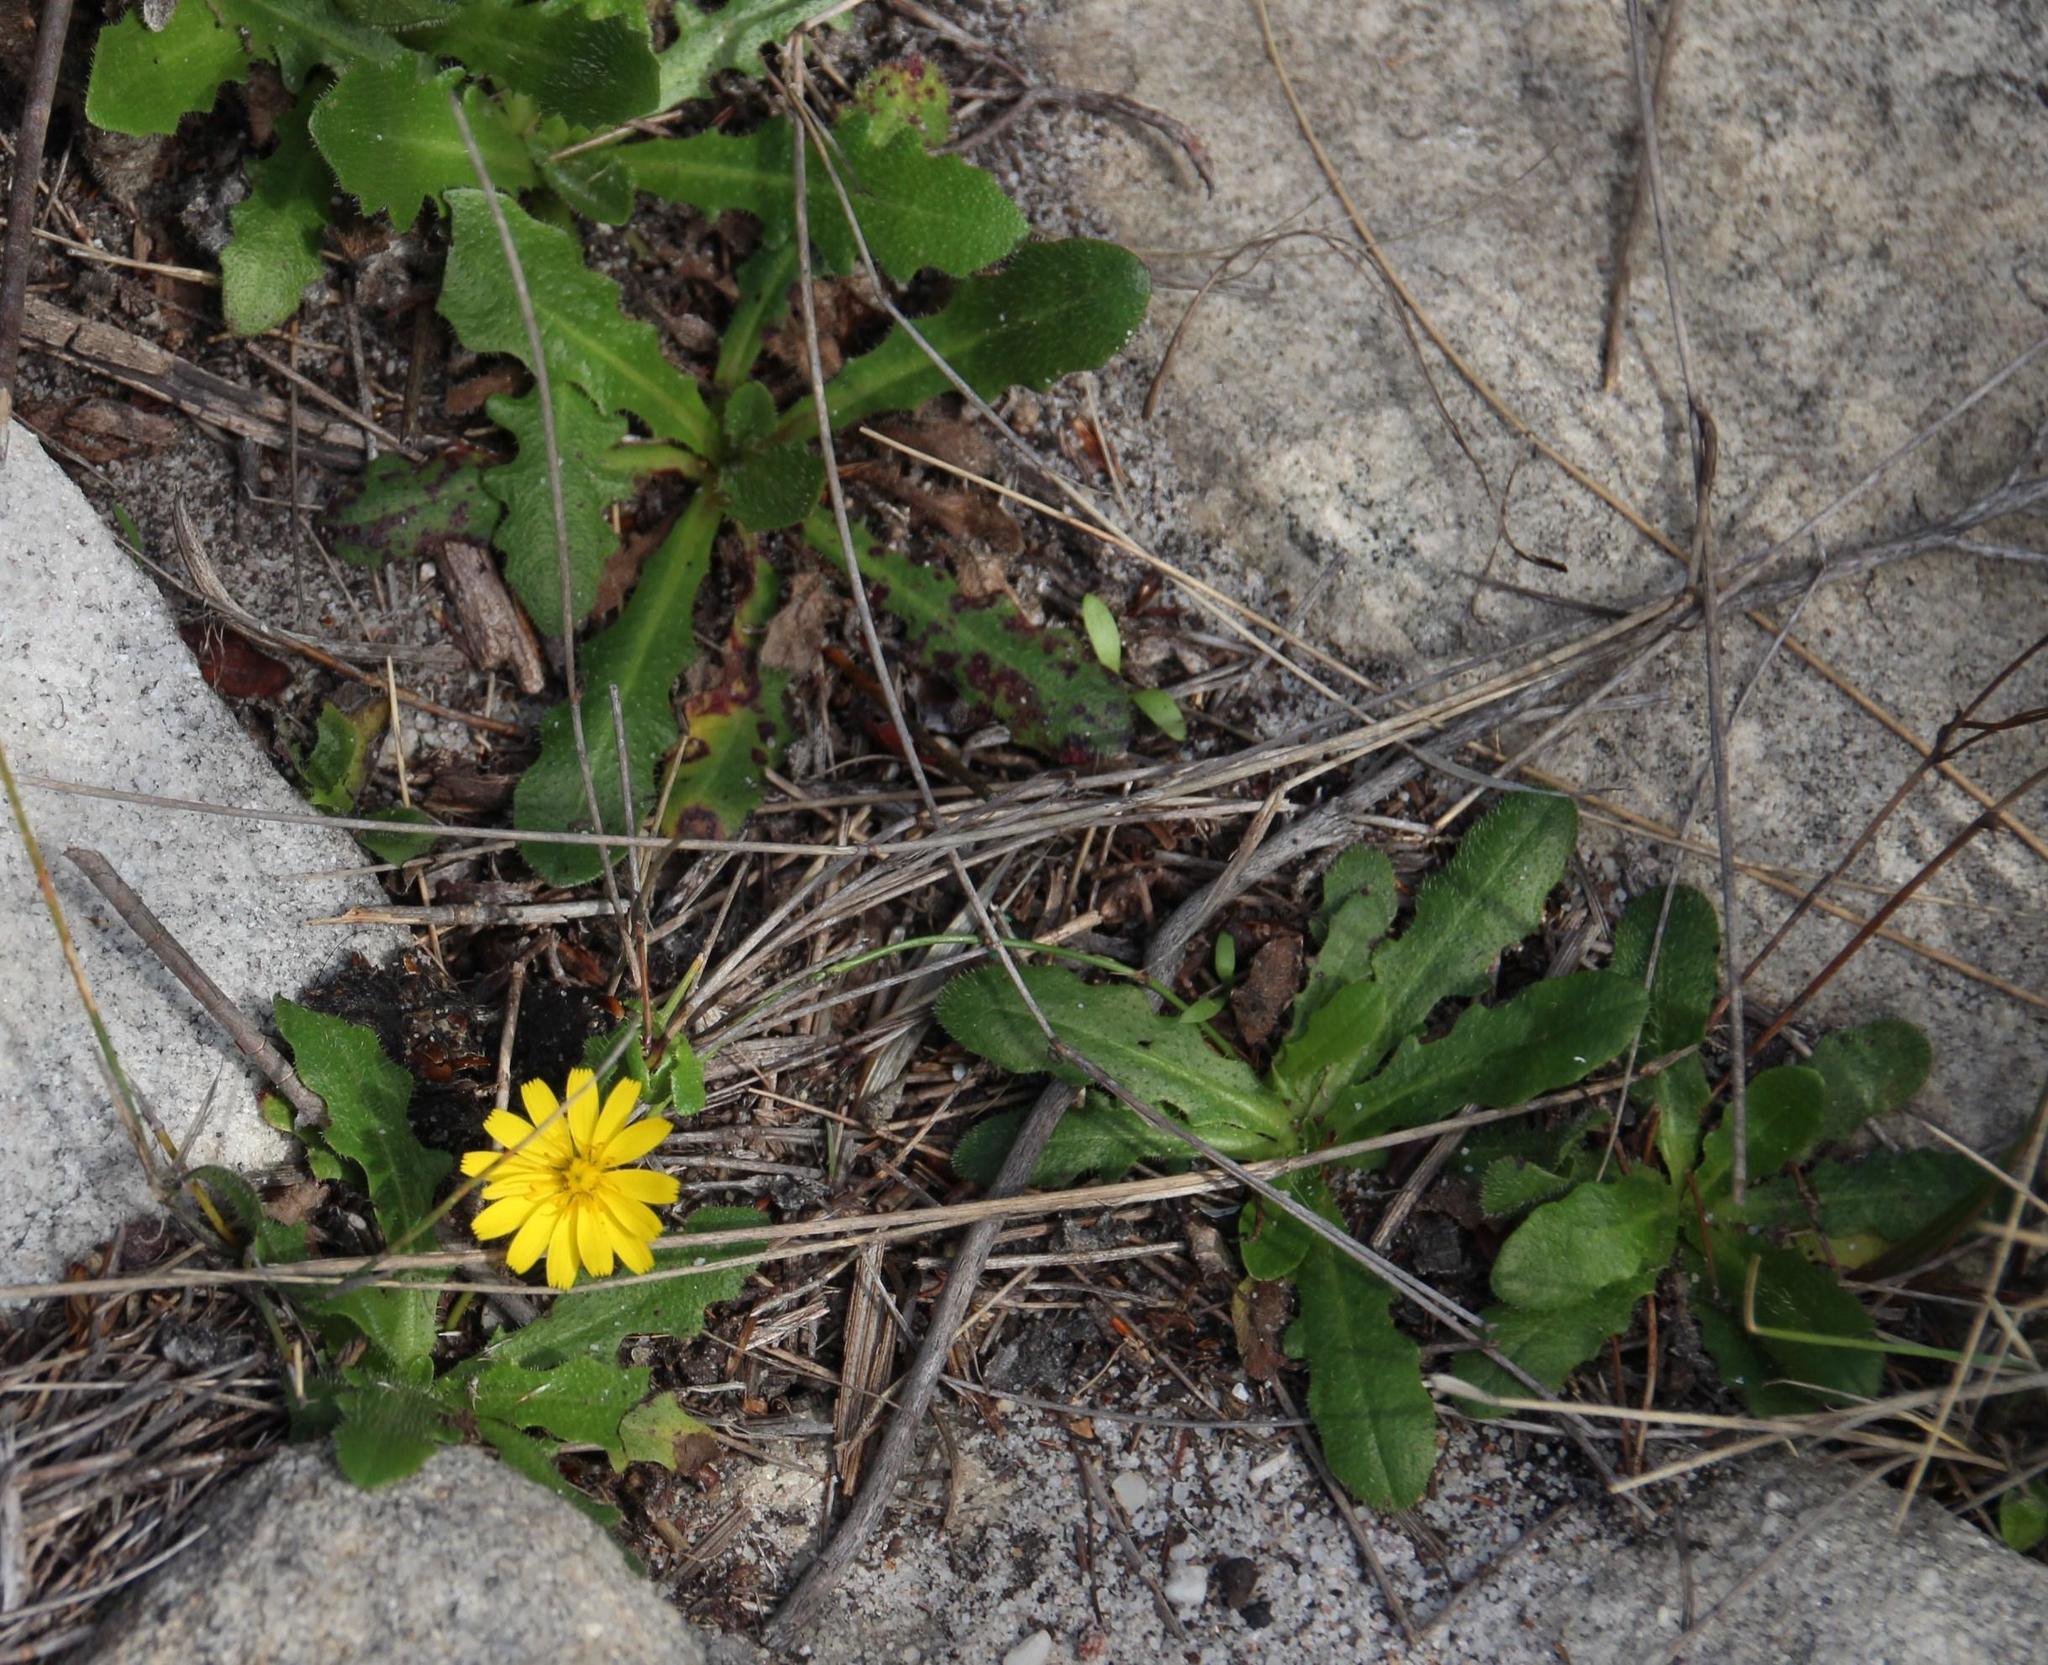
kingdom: Plantae
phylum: Tracheophyta
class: Magnoliopsida
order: Asterales
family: Asteraceae
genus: Hypochaeris
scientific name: Hypochaeris radicata
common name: Flatweed
